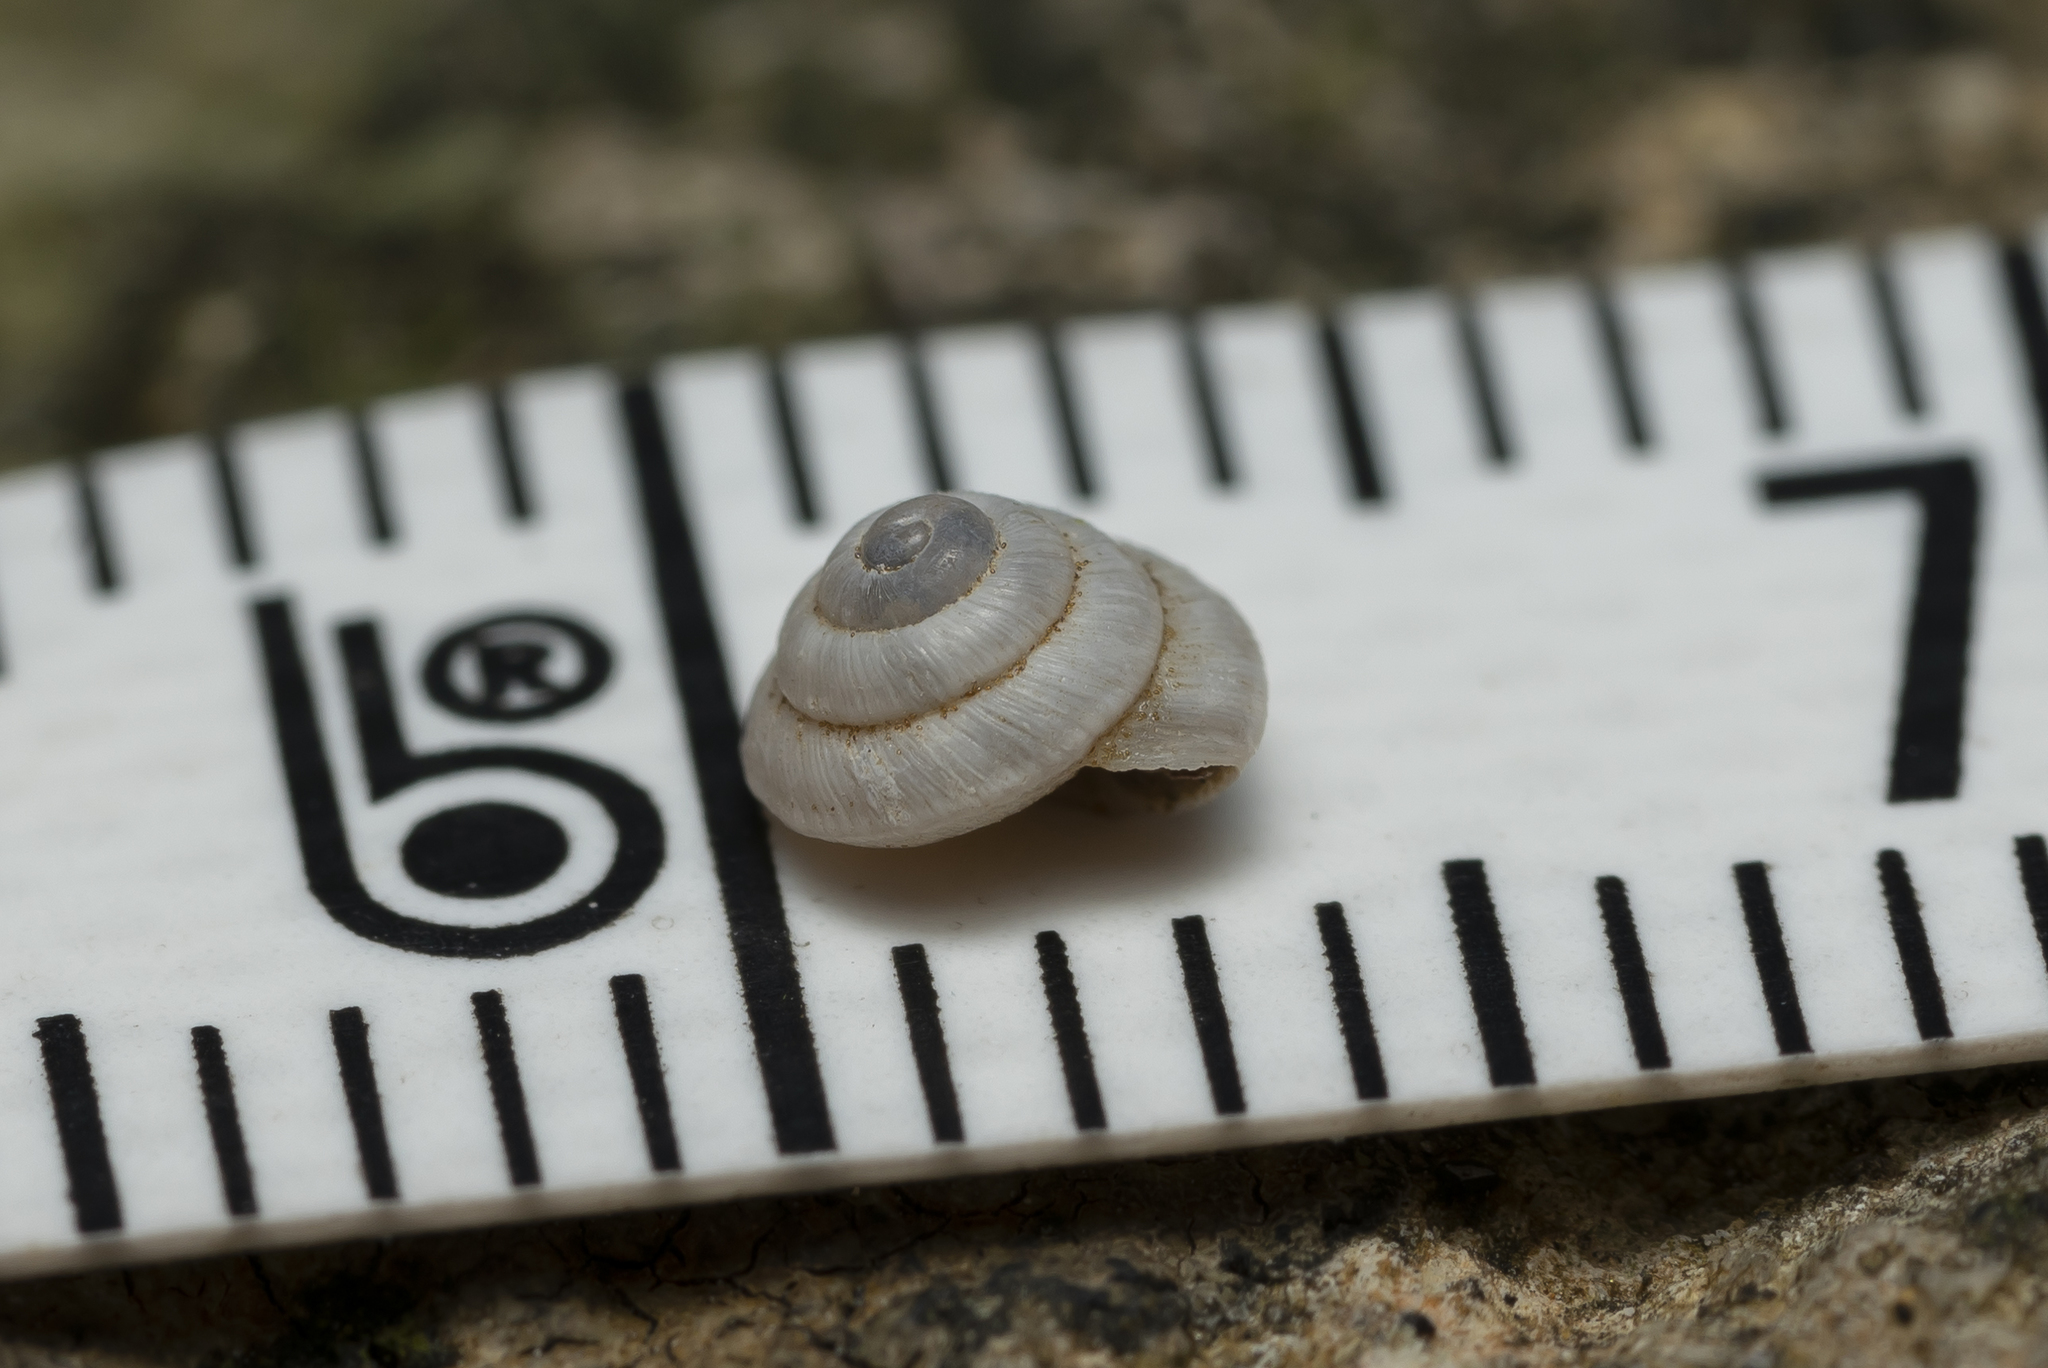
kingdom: Animalia
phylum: Mollusca
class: Gastropoda
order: Stylommatophora
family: Geomitridae
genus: Trochoidea
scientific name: Trochoidea trochoides
